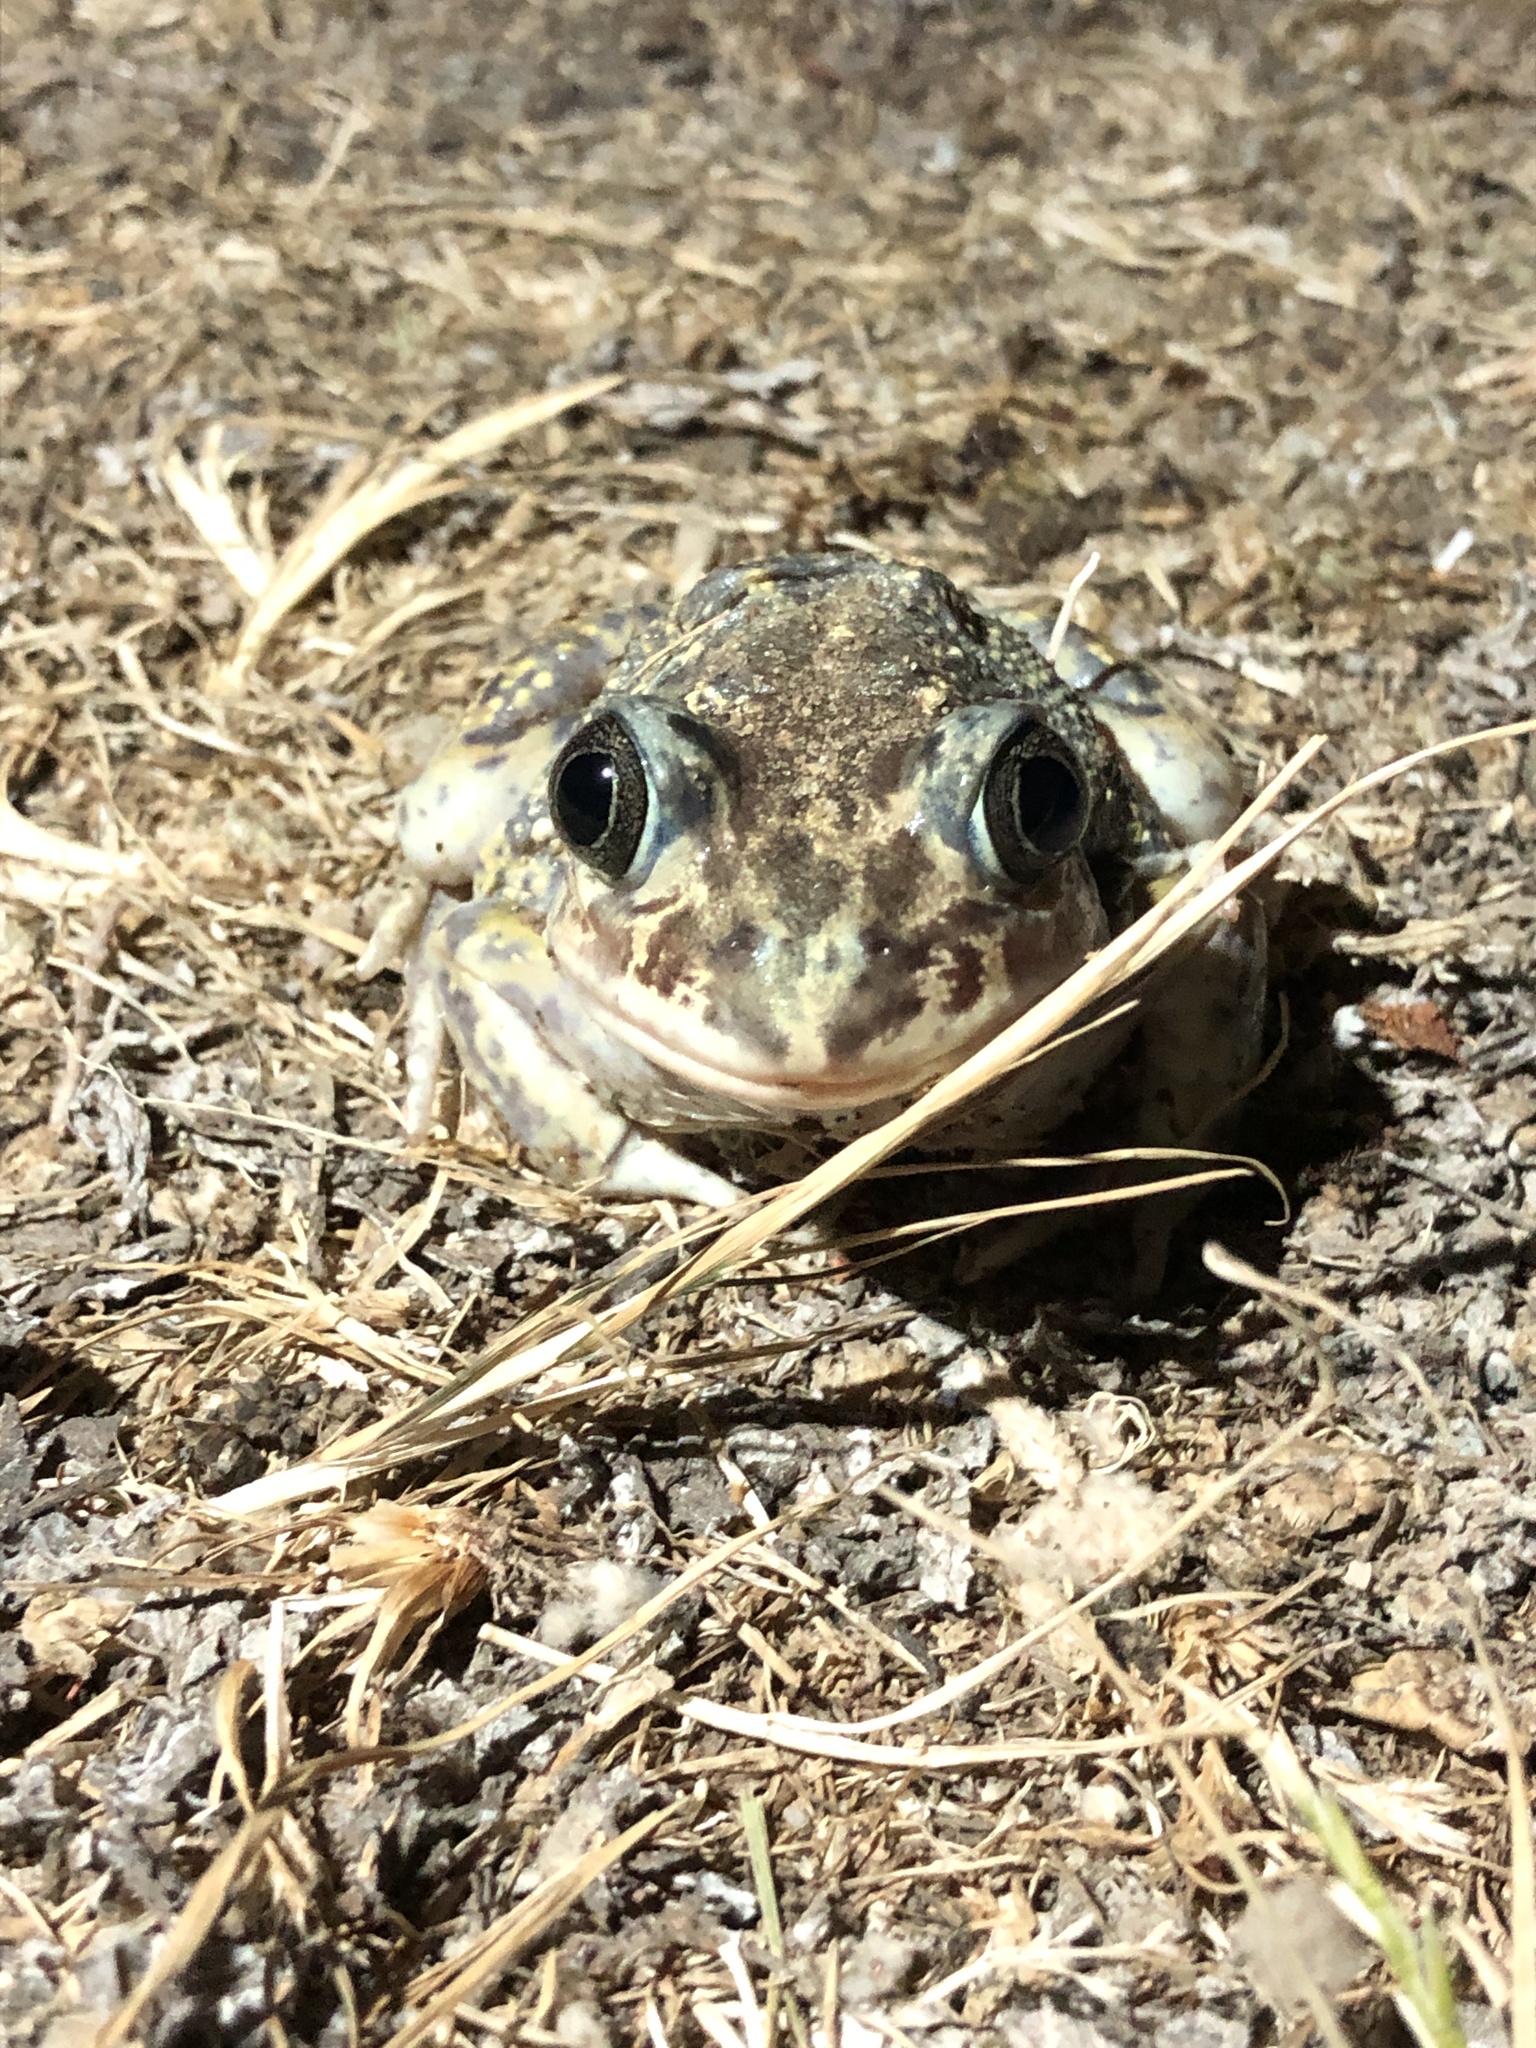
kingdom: Animalia
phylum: Chordata
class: Amphibia
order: Anura
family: Pelobatidae
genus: Pelobates
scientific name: Pelobates cultripes
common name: Western spadefoot
